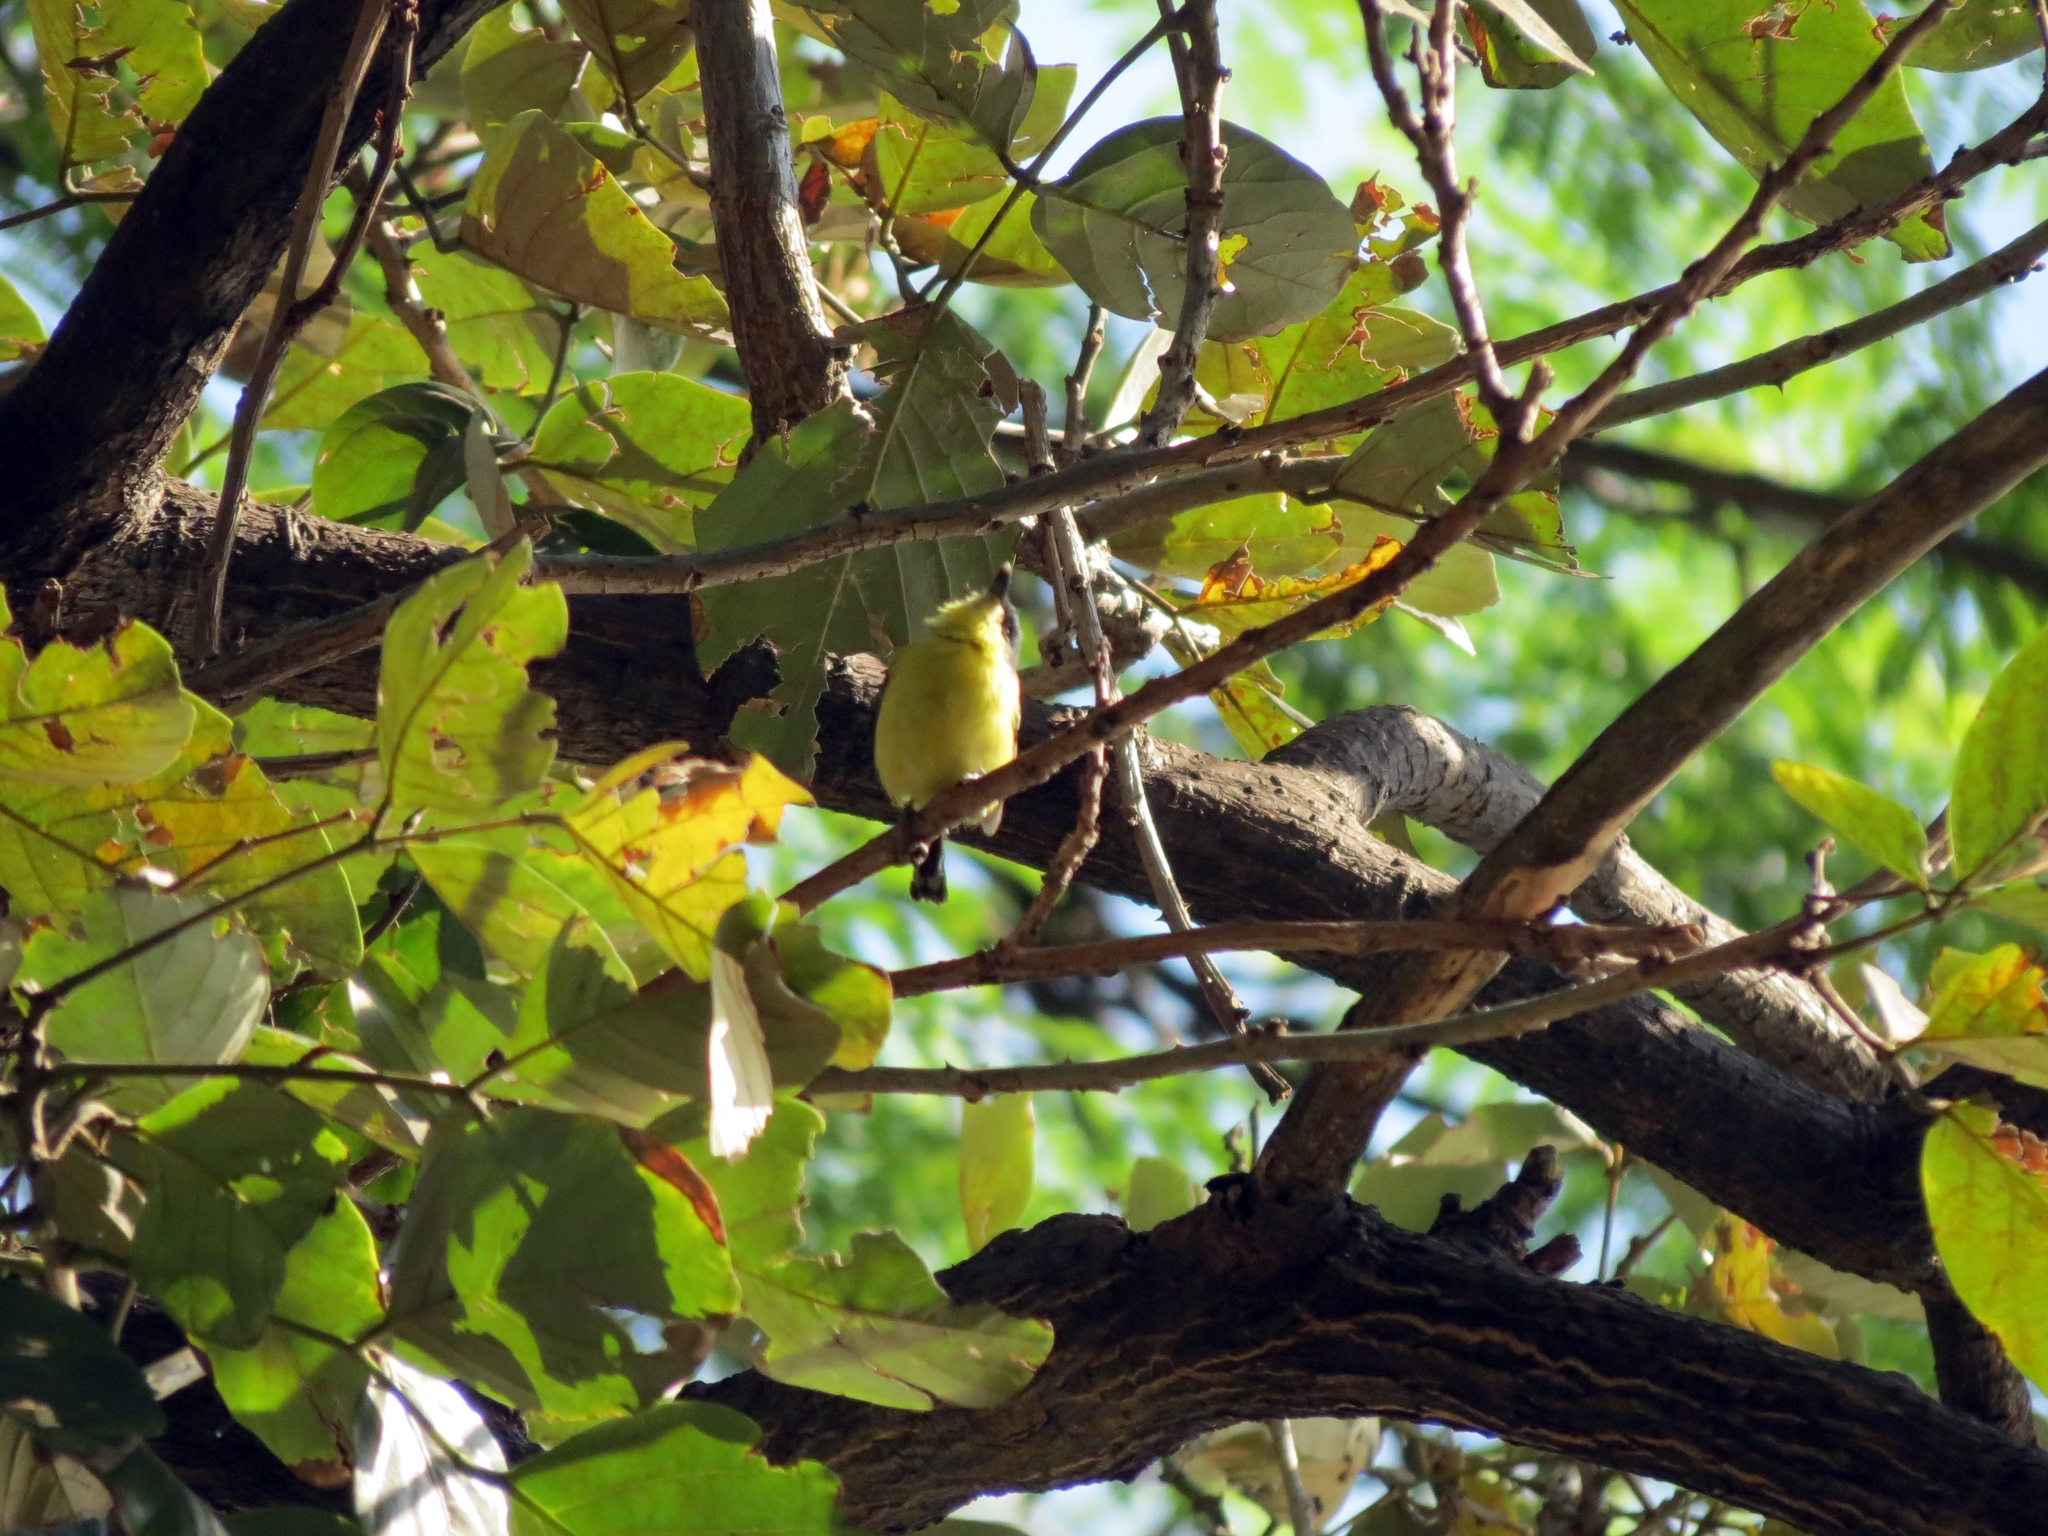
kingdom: Animalia
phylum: Chordata
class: Aves
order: Passeriformes
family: Tyrannidae
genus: Todirostrum
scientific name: Todirostrum cinereum
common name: Common tody-flycatcher
